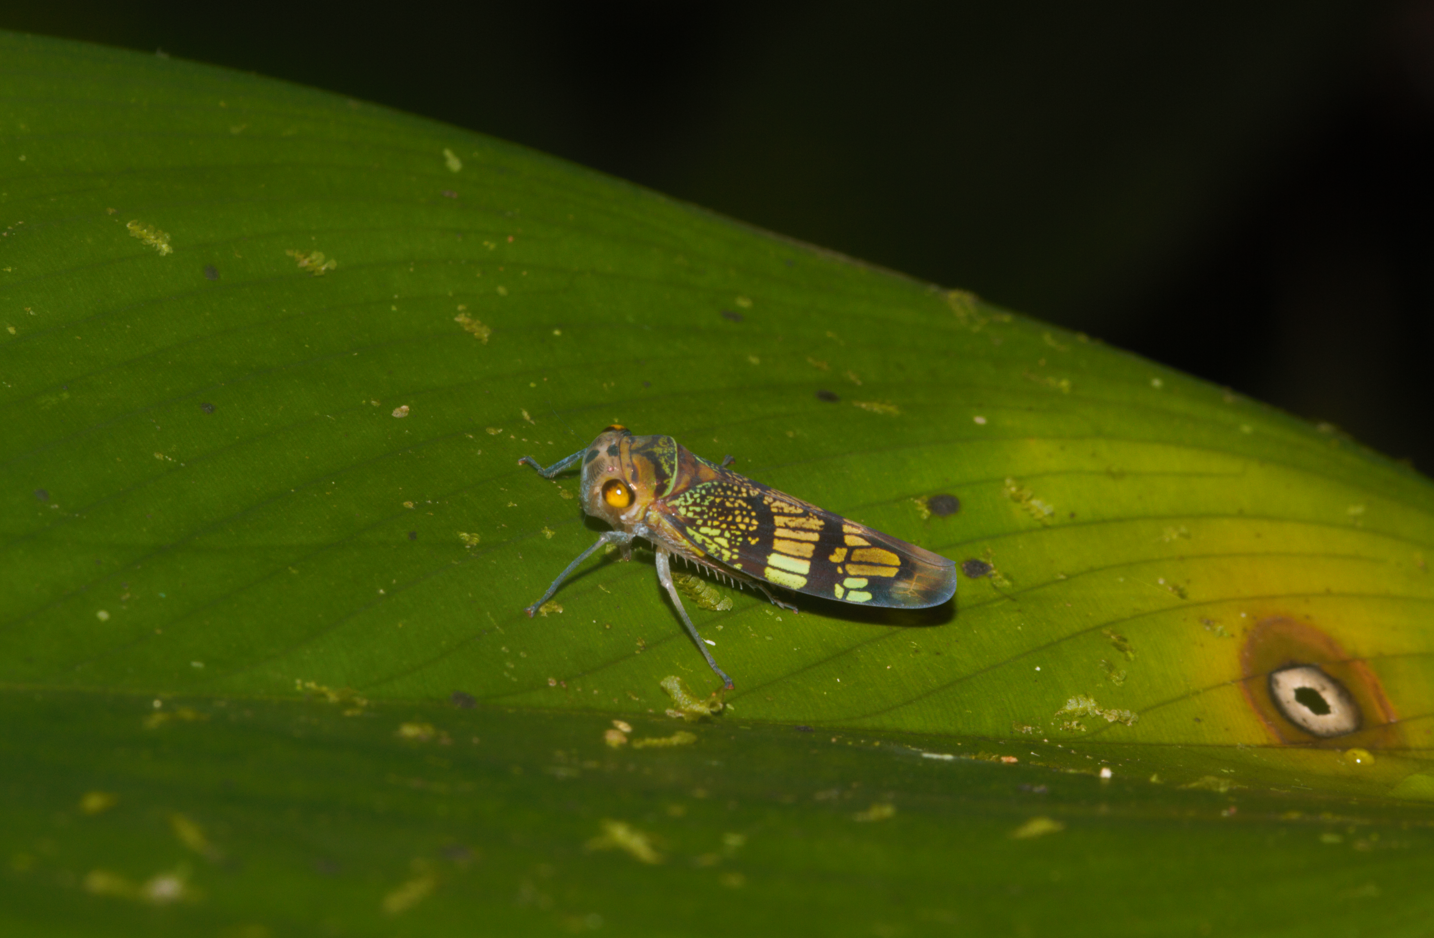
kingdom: Animalia
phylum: Arthropoda
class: Insecta
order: Hemiptera
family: Cicadellidae
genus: Amblyscarta
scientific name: Amblyscarta pulchra
